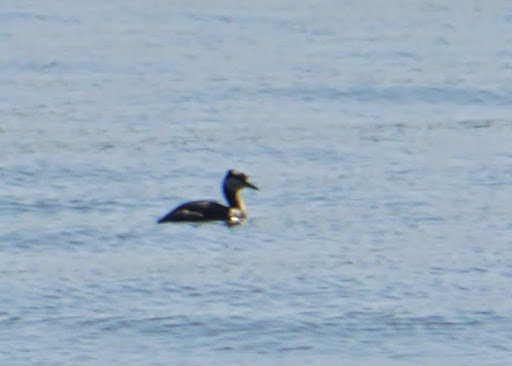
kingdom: Animalia
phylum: Chordata
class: Aves
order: Podicipediformes
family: Podicipedidae
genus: Podiceps
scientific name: Podiceps grisegena
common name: Red-necked grebe
